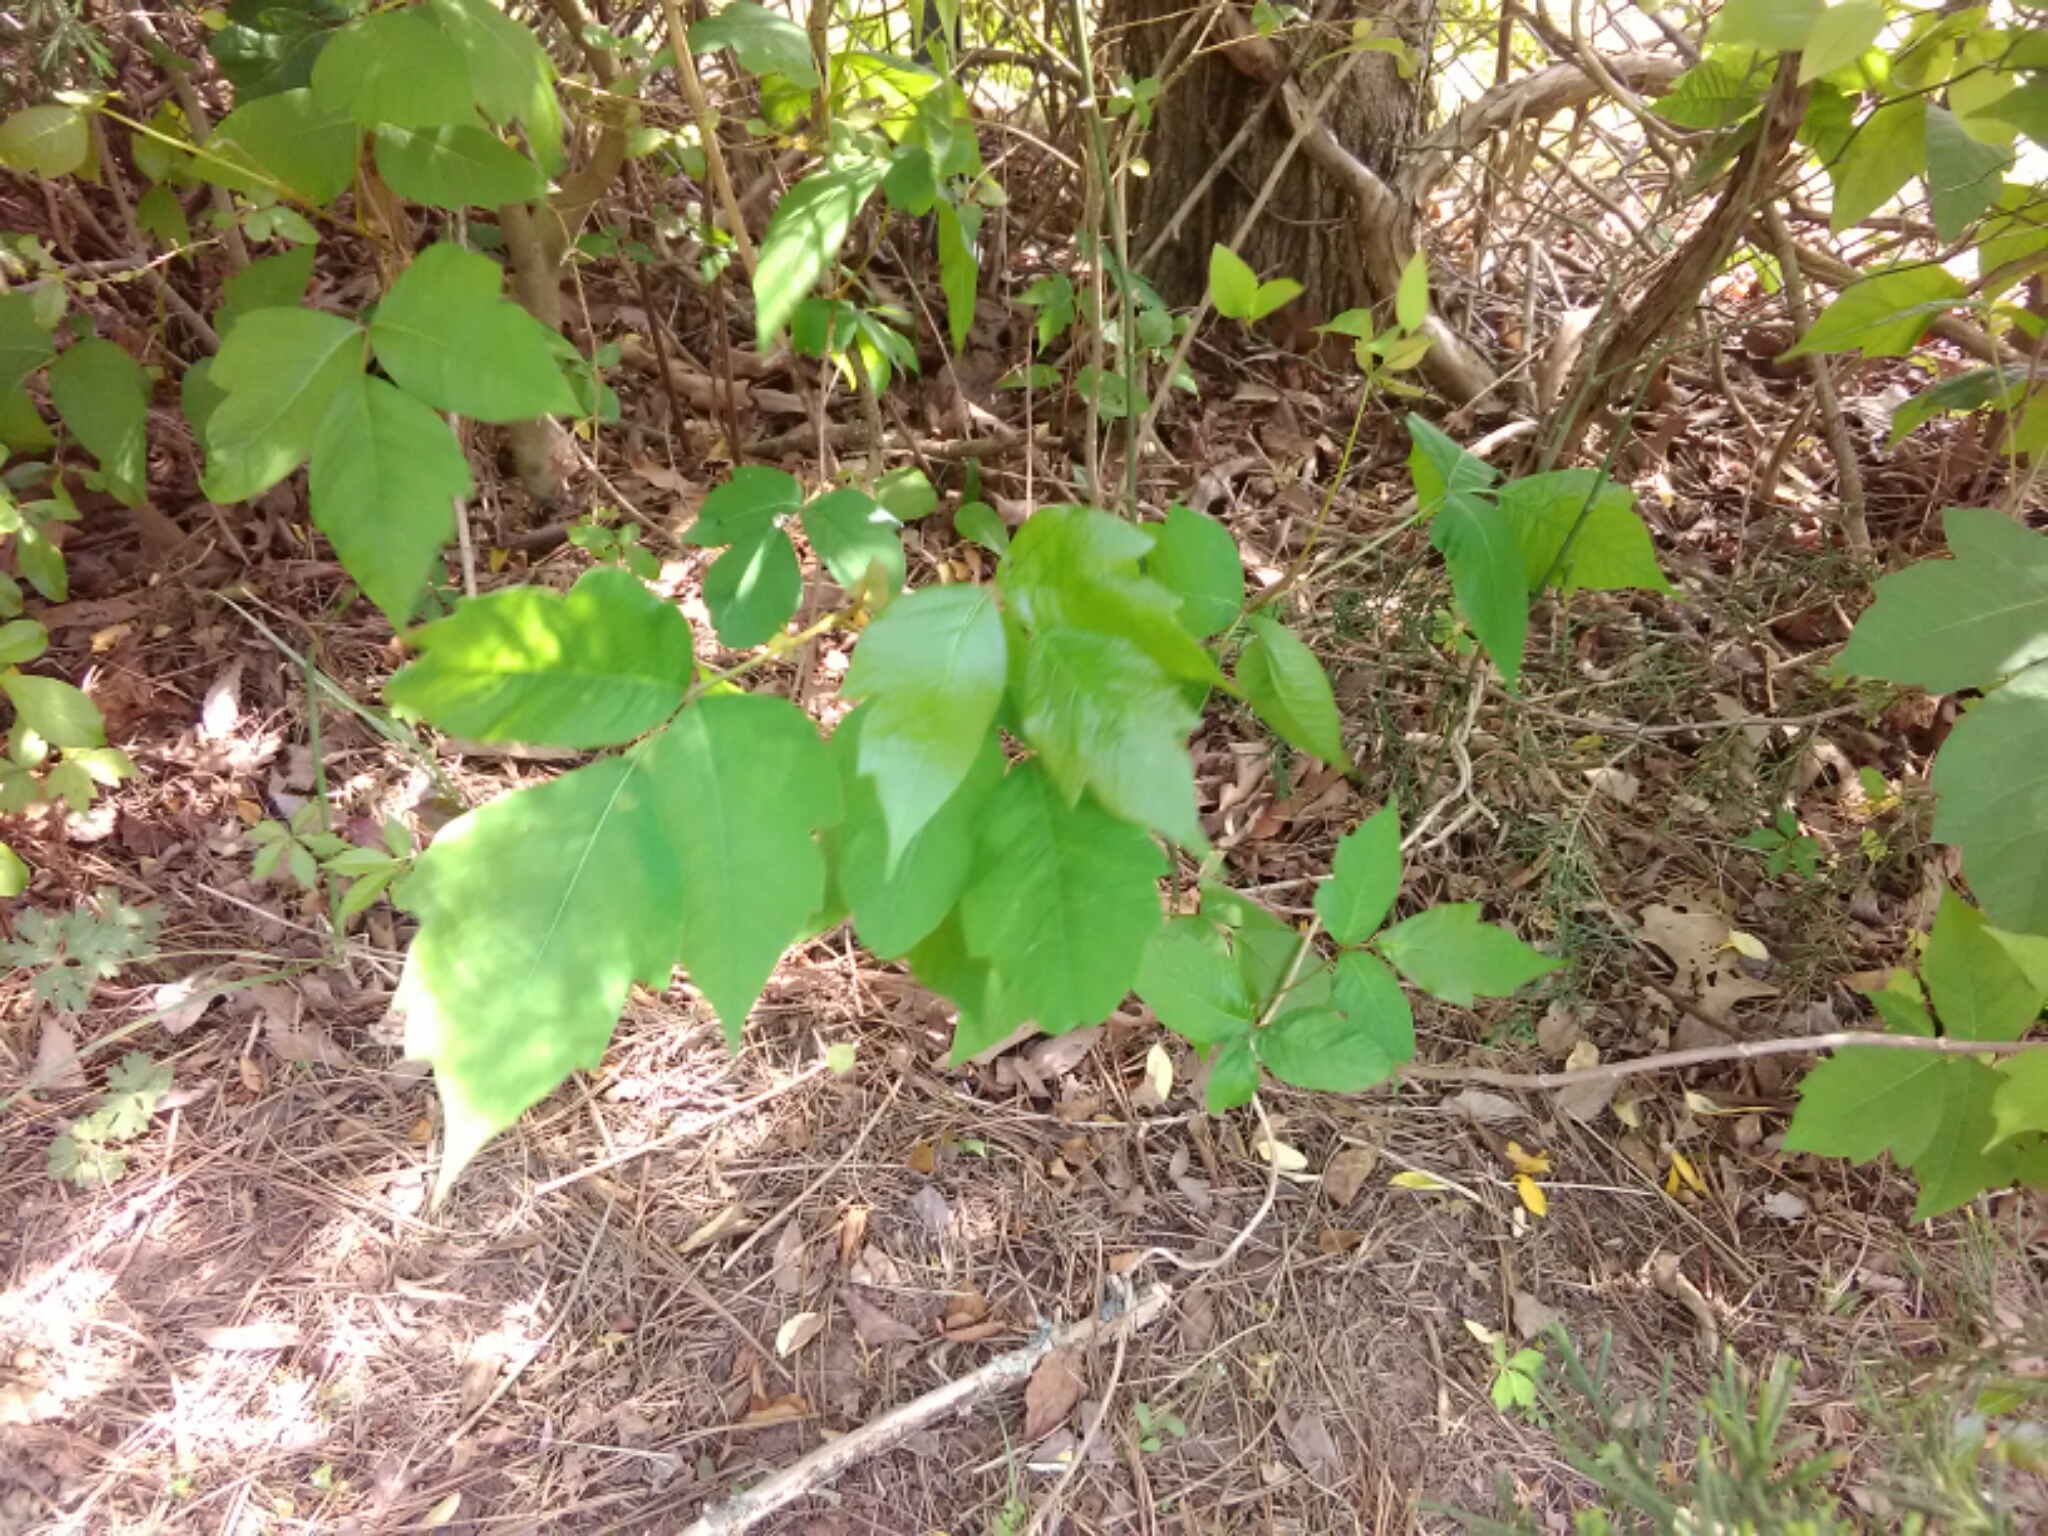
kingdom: Plantae
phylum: Tracheophyta
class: Magnoliopsida
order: Sapindales
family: Anacardiaceae
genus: Toxicodendron
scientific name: Toxicodendron radicans
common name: Poison ivy
